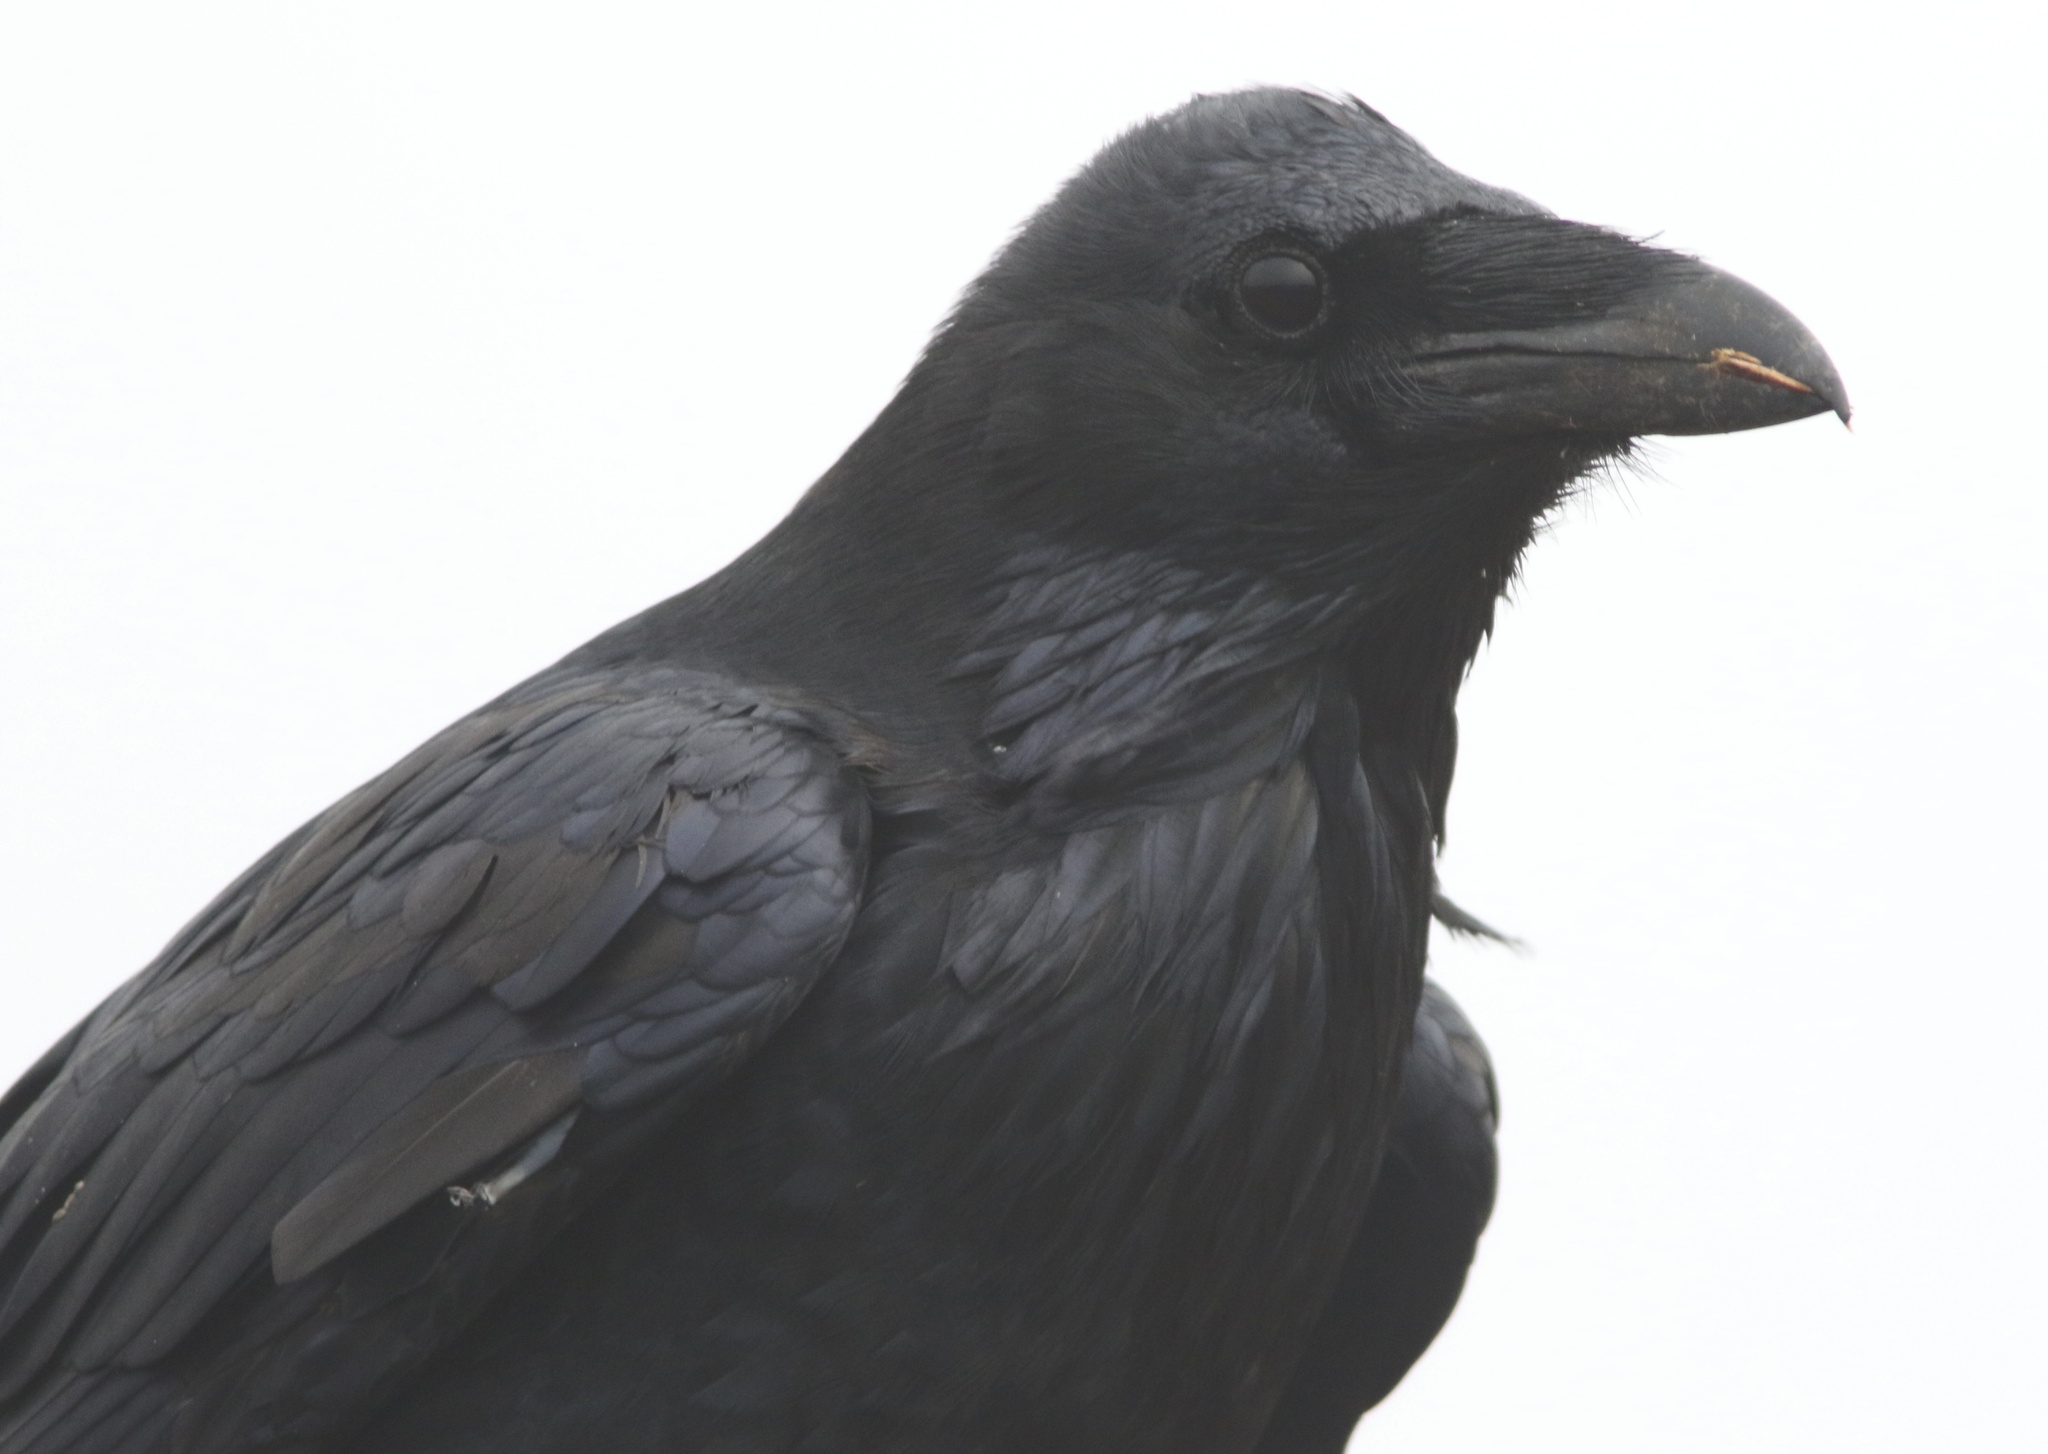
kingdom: Animalia
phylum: Chordata
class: Aves
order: Passeriformes
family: Corvidae
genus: Corvus
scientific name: Corvus corax
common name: Common raven
